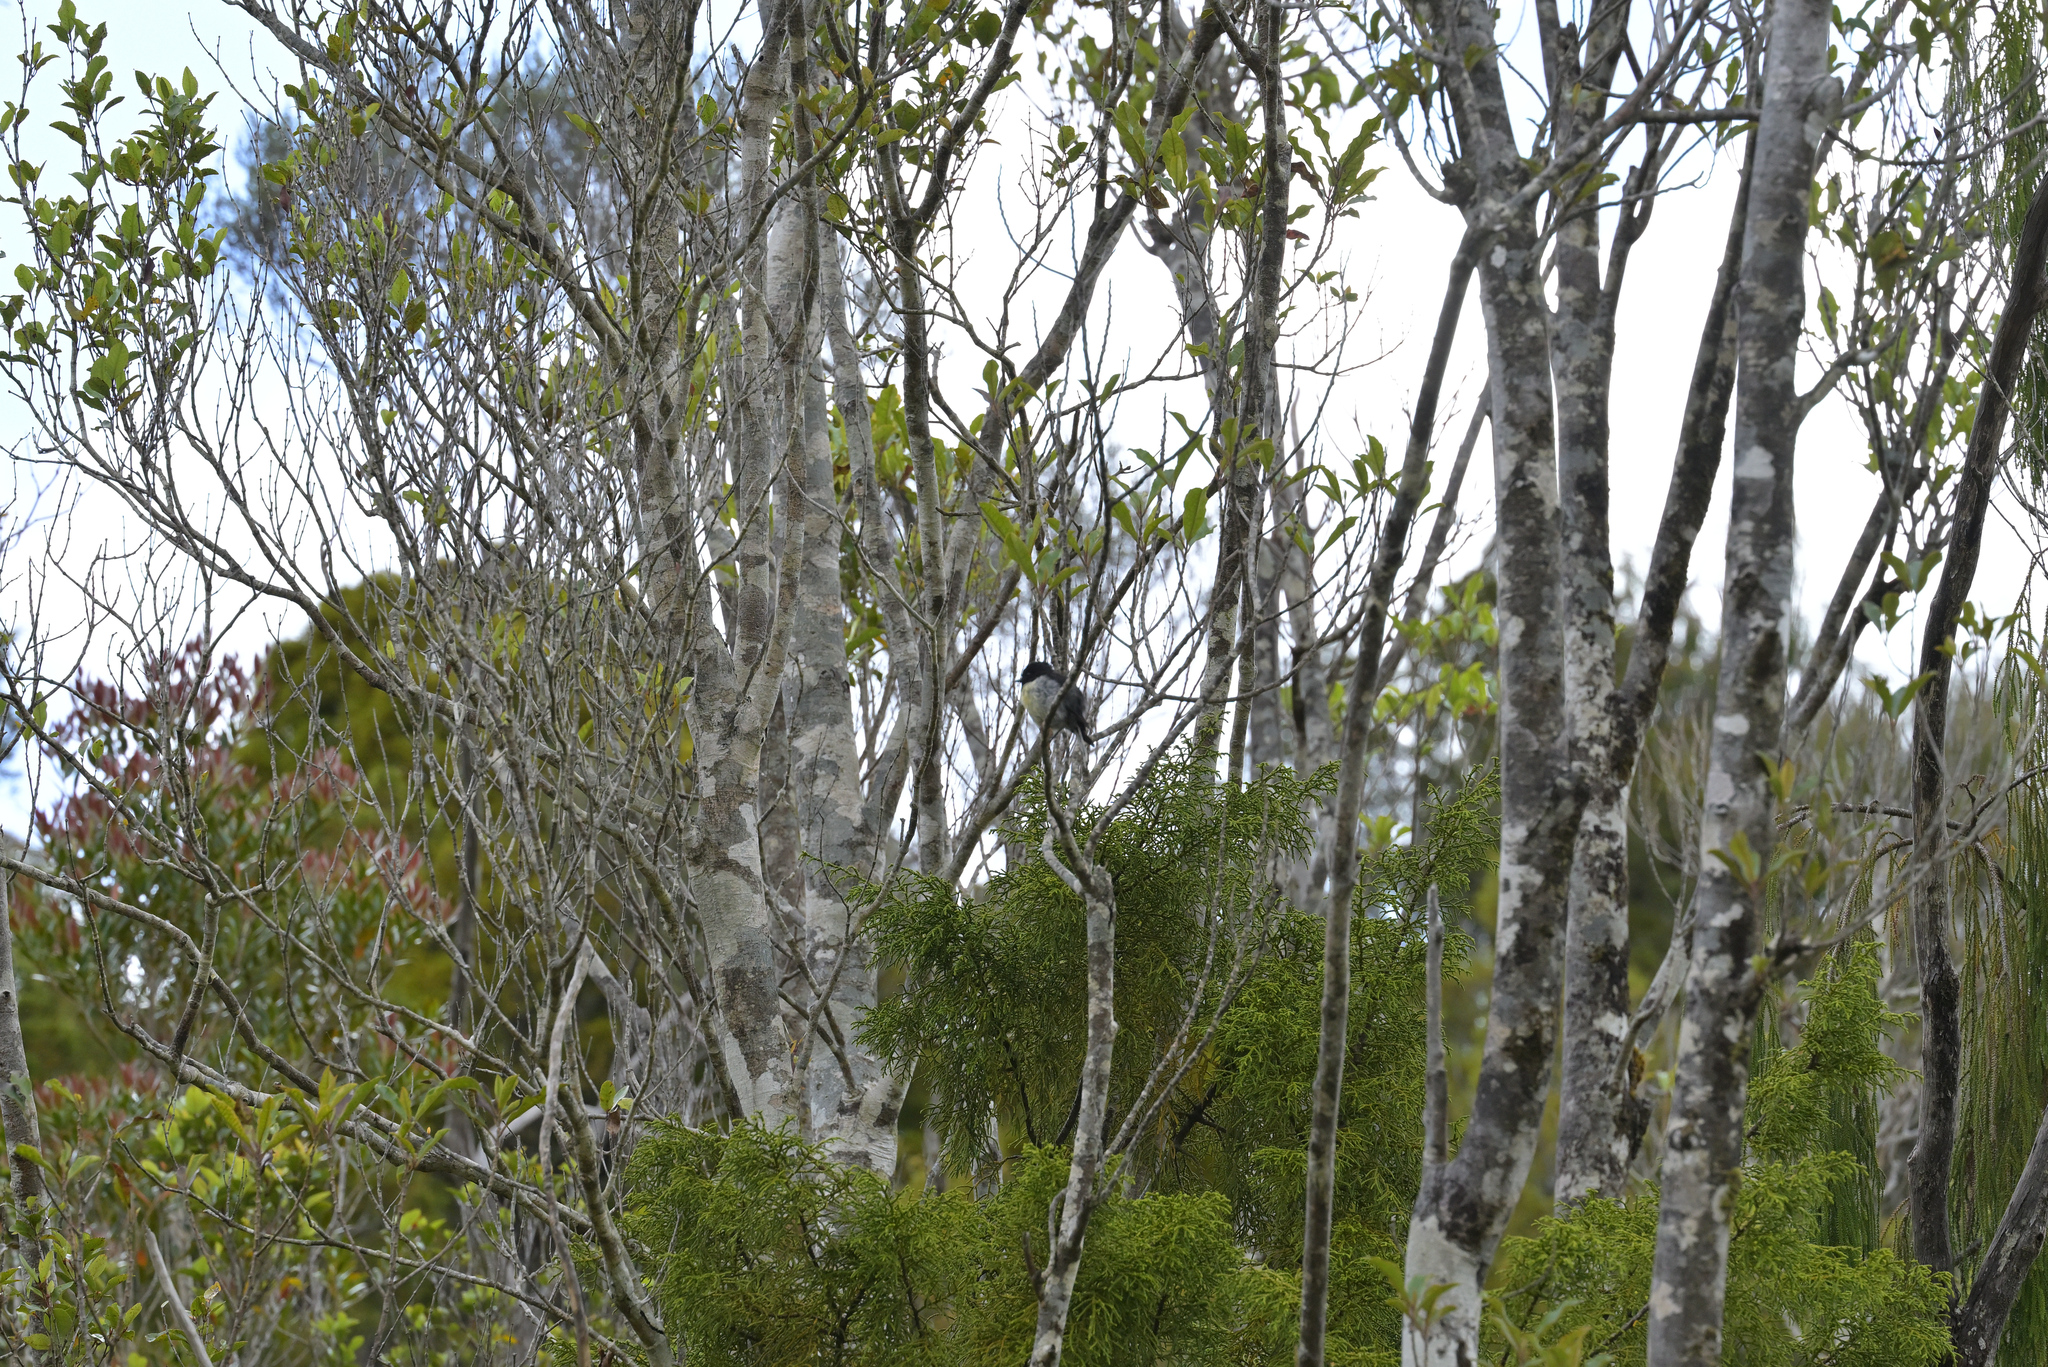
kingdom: Animalia
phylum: Chordata
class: Aves
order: Passeriformes
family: Petroicidae
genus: Petroica
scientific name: Petroica macrocephala
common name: Tomtit
